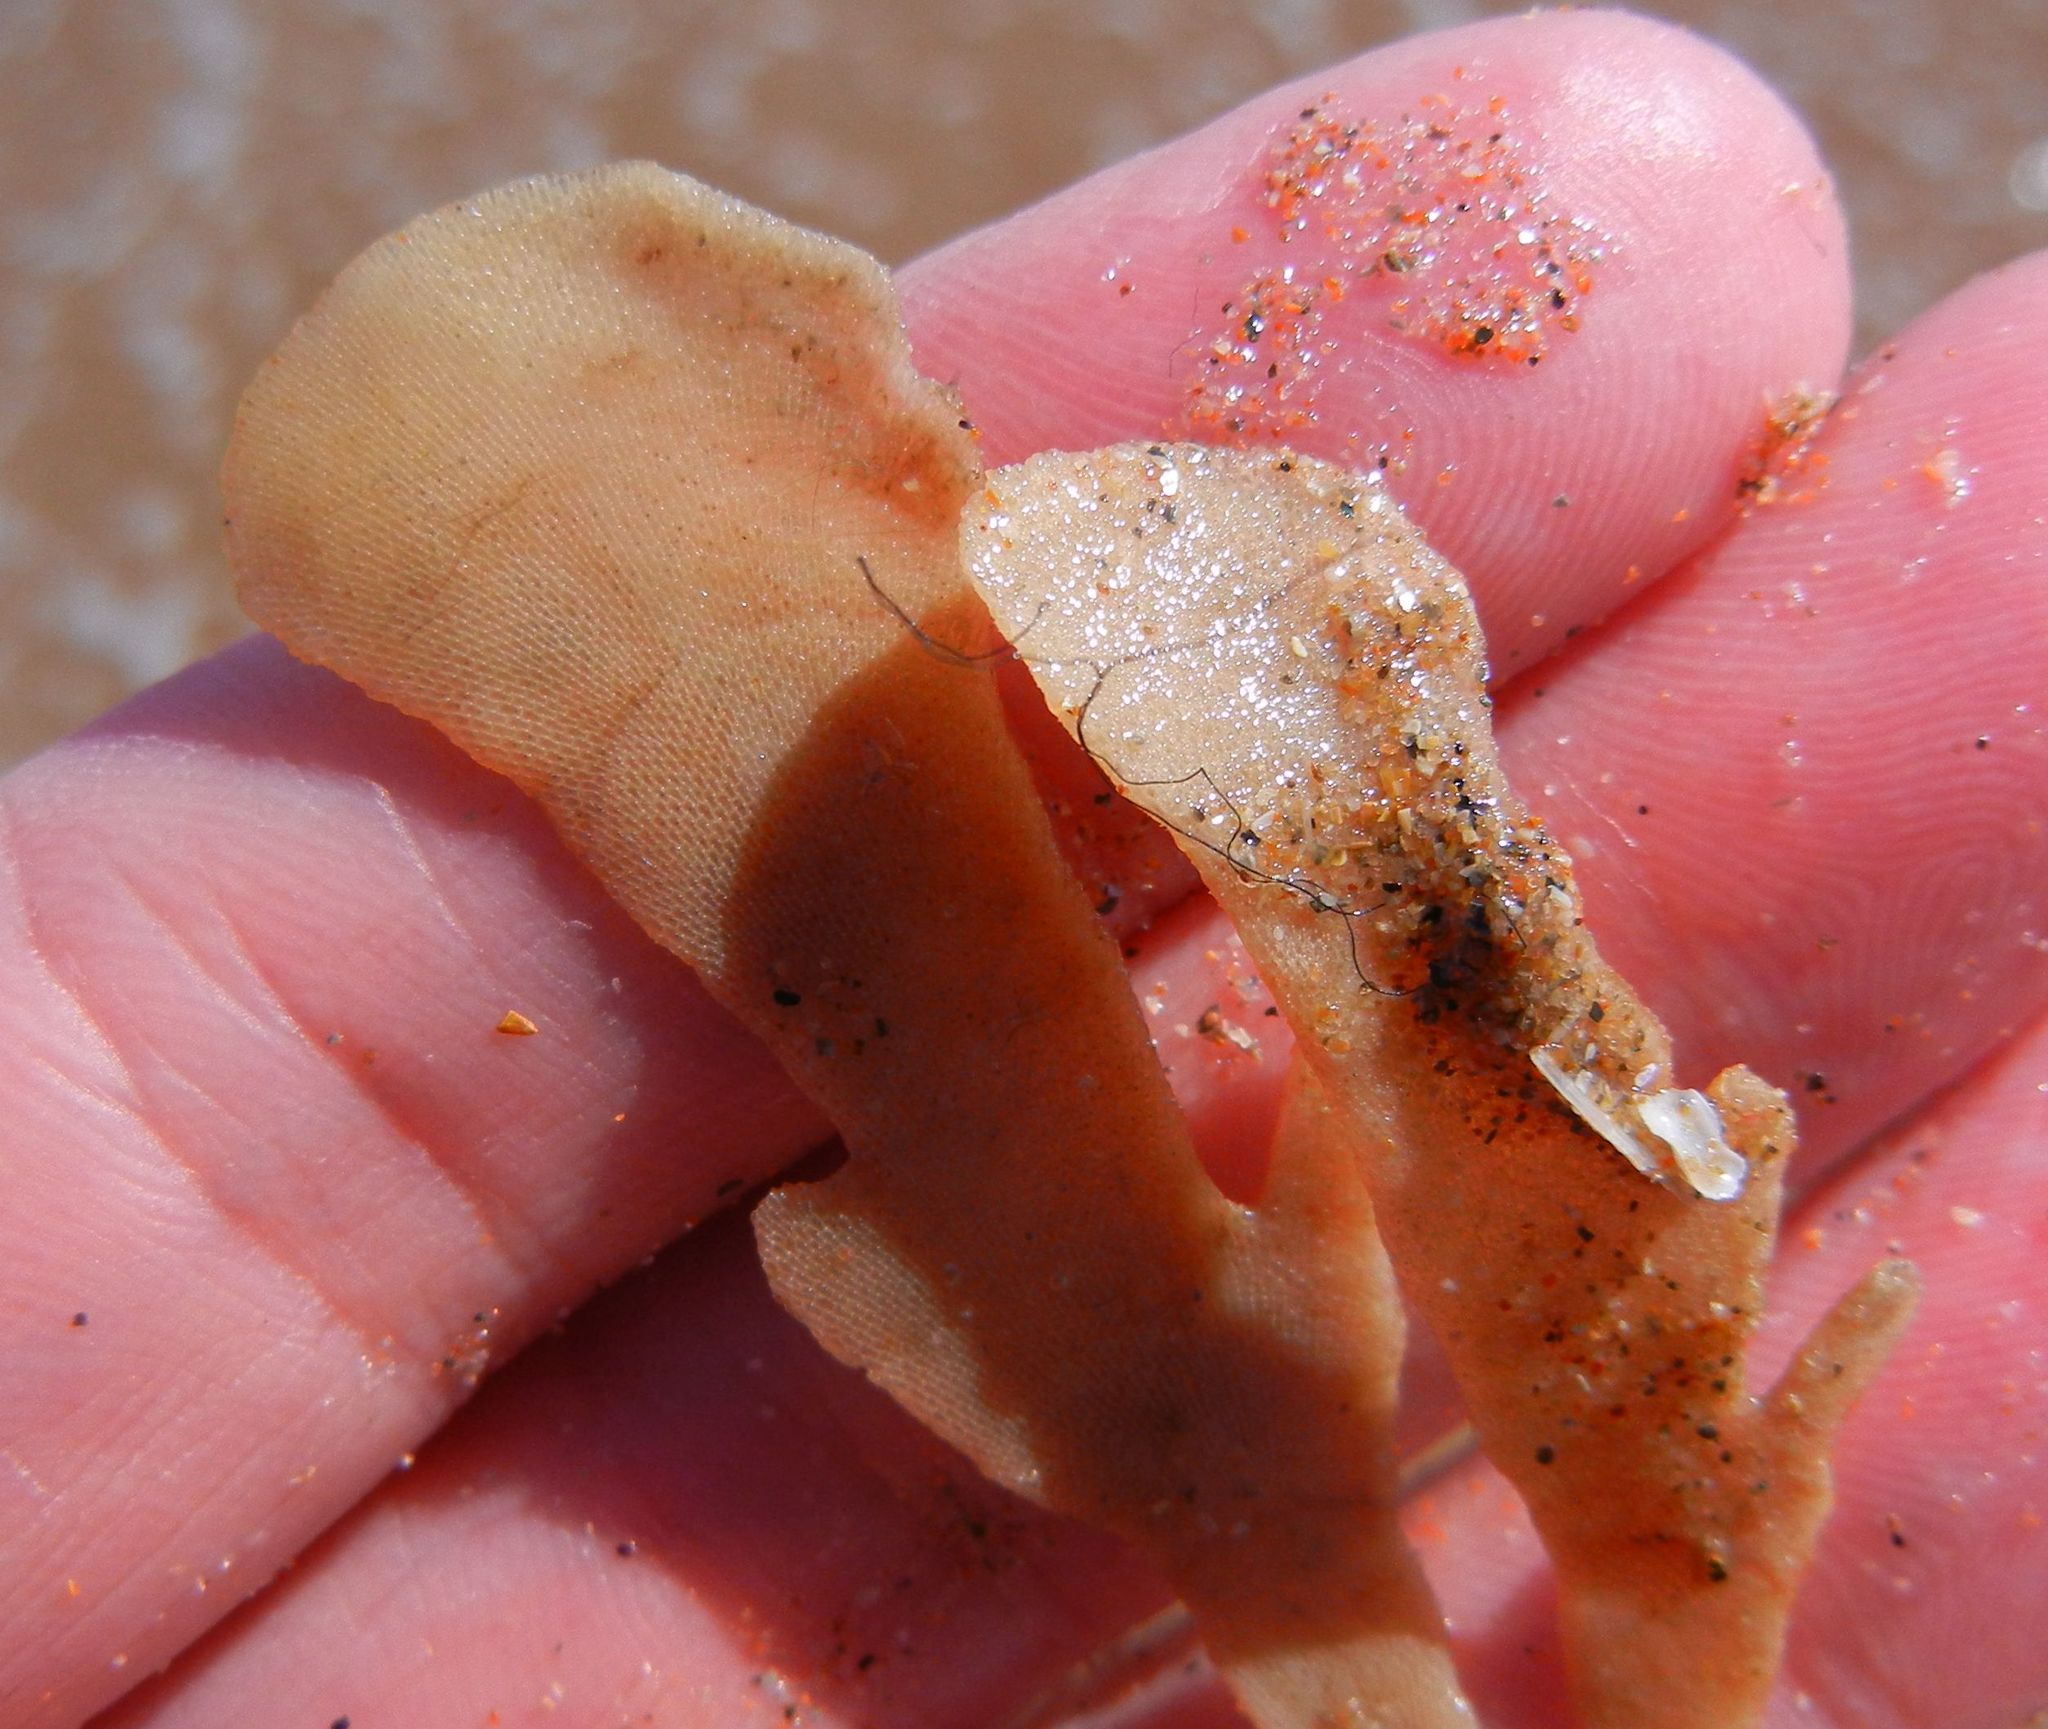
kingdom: Animalia
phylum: Bryozoa
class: Gymnolaemata
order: Cheilostomatida
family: Flustridae
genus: Flustra
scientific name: Flustra foliacea
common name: Hornwrack
